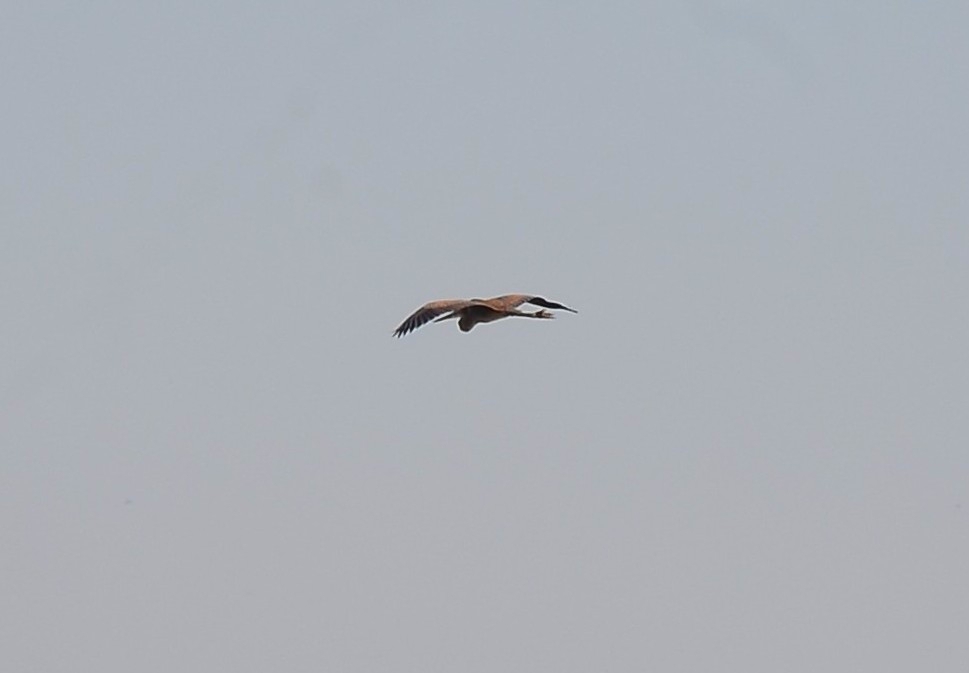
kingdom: Animalia
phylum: Chordata
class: Aves
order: Pelecaniformes
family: Ardeidae
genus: Ardea
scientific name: Ardea purpurea
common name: Purple heron
